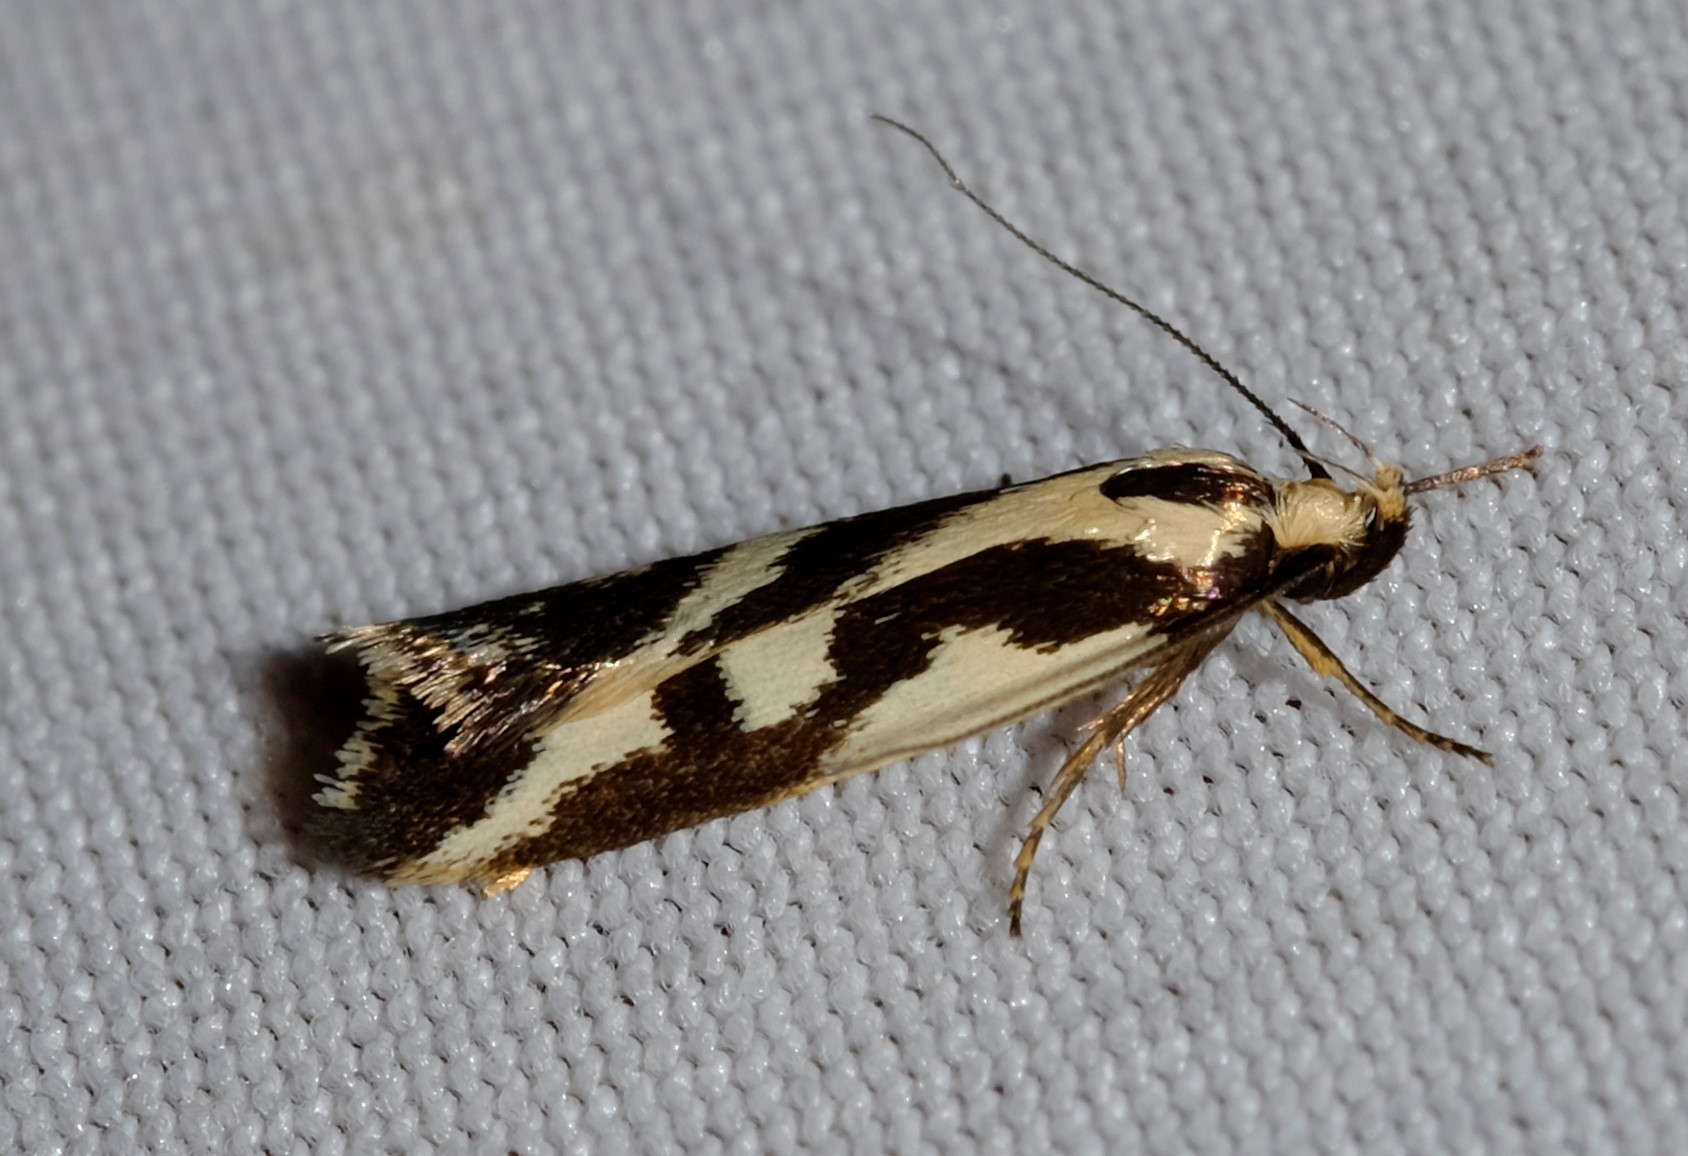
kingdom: Animalia
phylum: Arthropoda
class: Insecta
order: Lepidoptera
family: Oecophoridae
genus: Epithymema
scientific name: Epithymema incomposita
